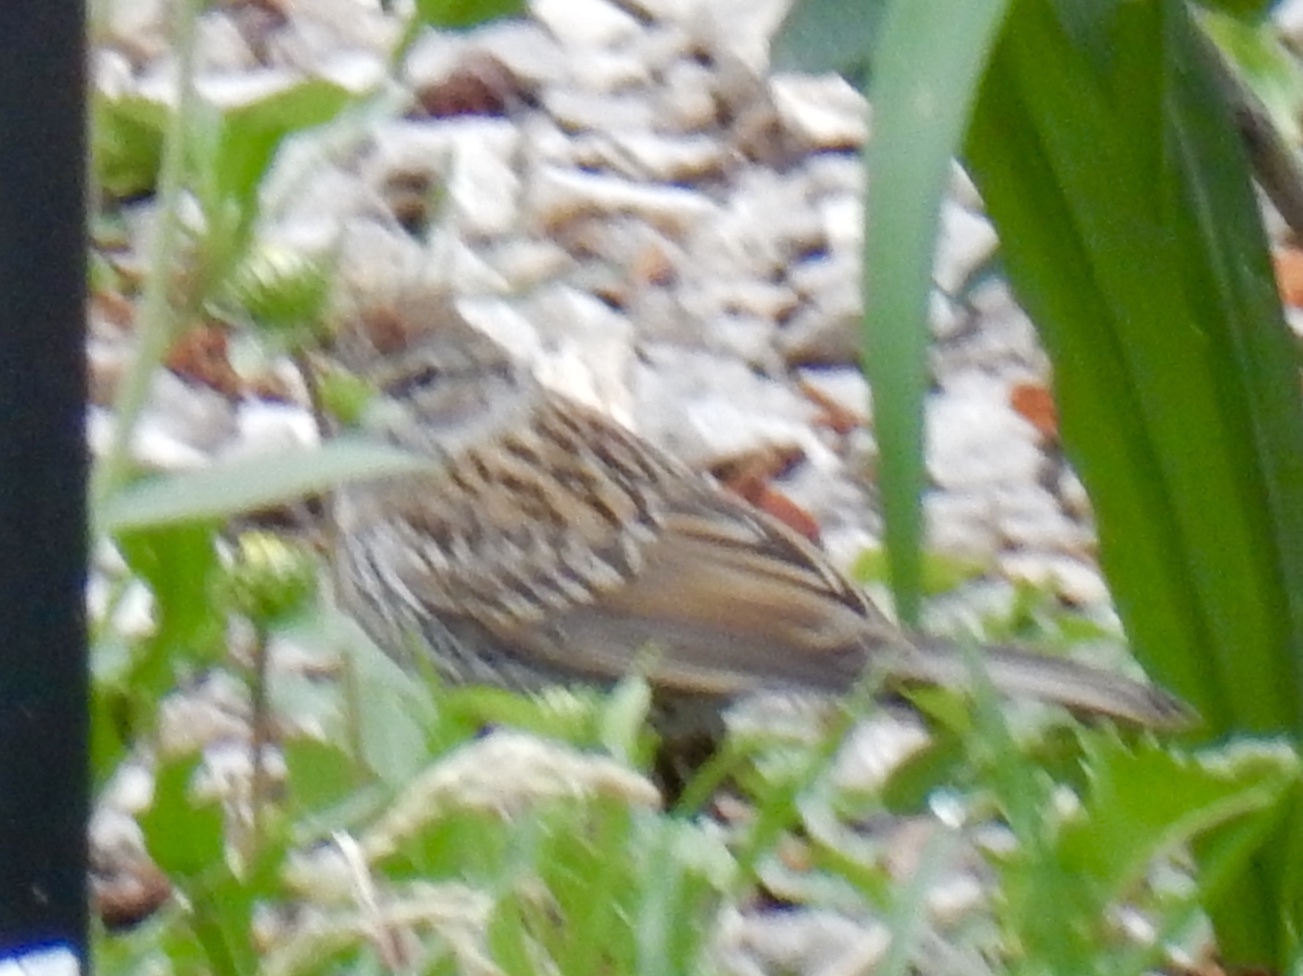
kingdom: Animalia
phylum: Chordata
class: Aves
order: Passeriformes
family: Passerellidae
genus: Spizella
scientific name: Spizella passerina
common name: Chipping sparrow
